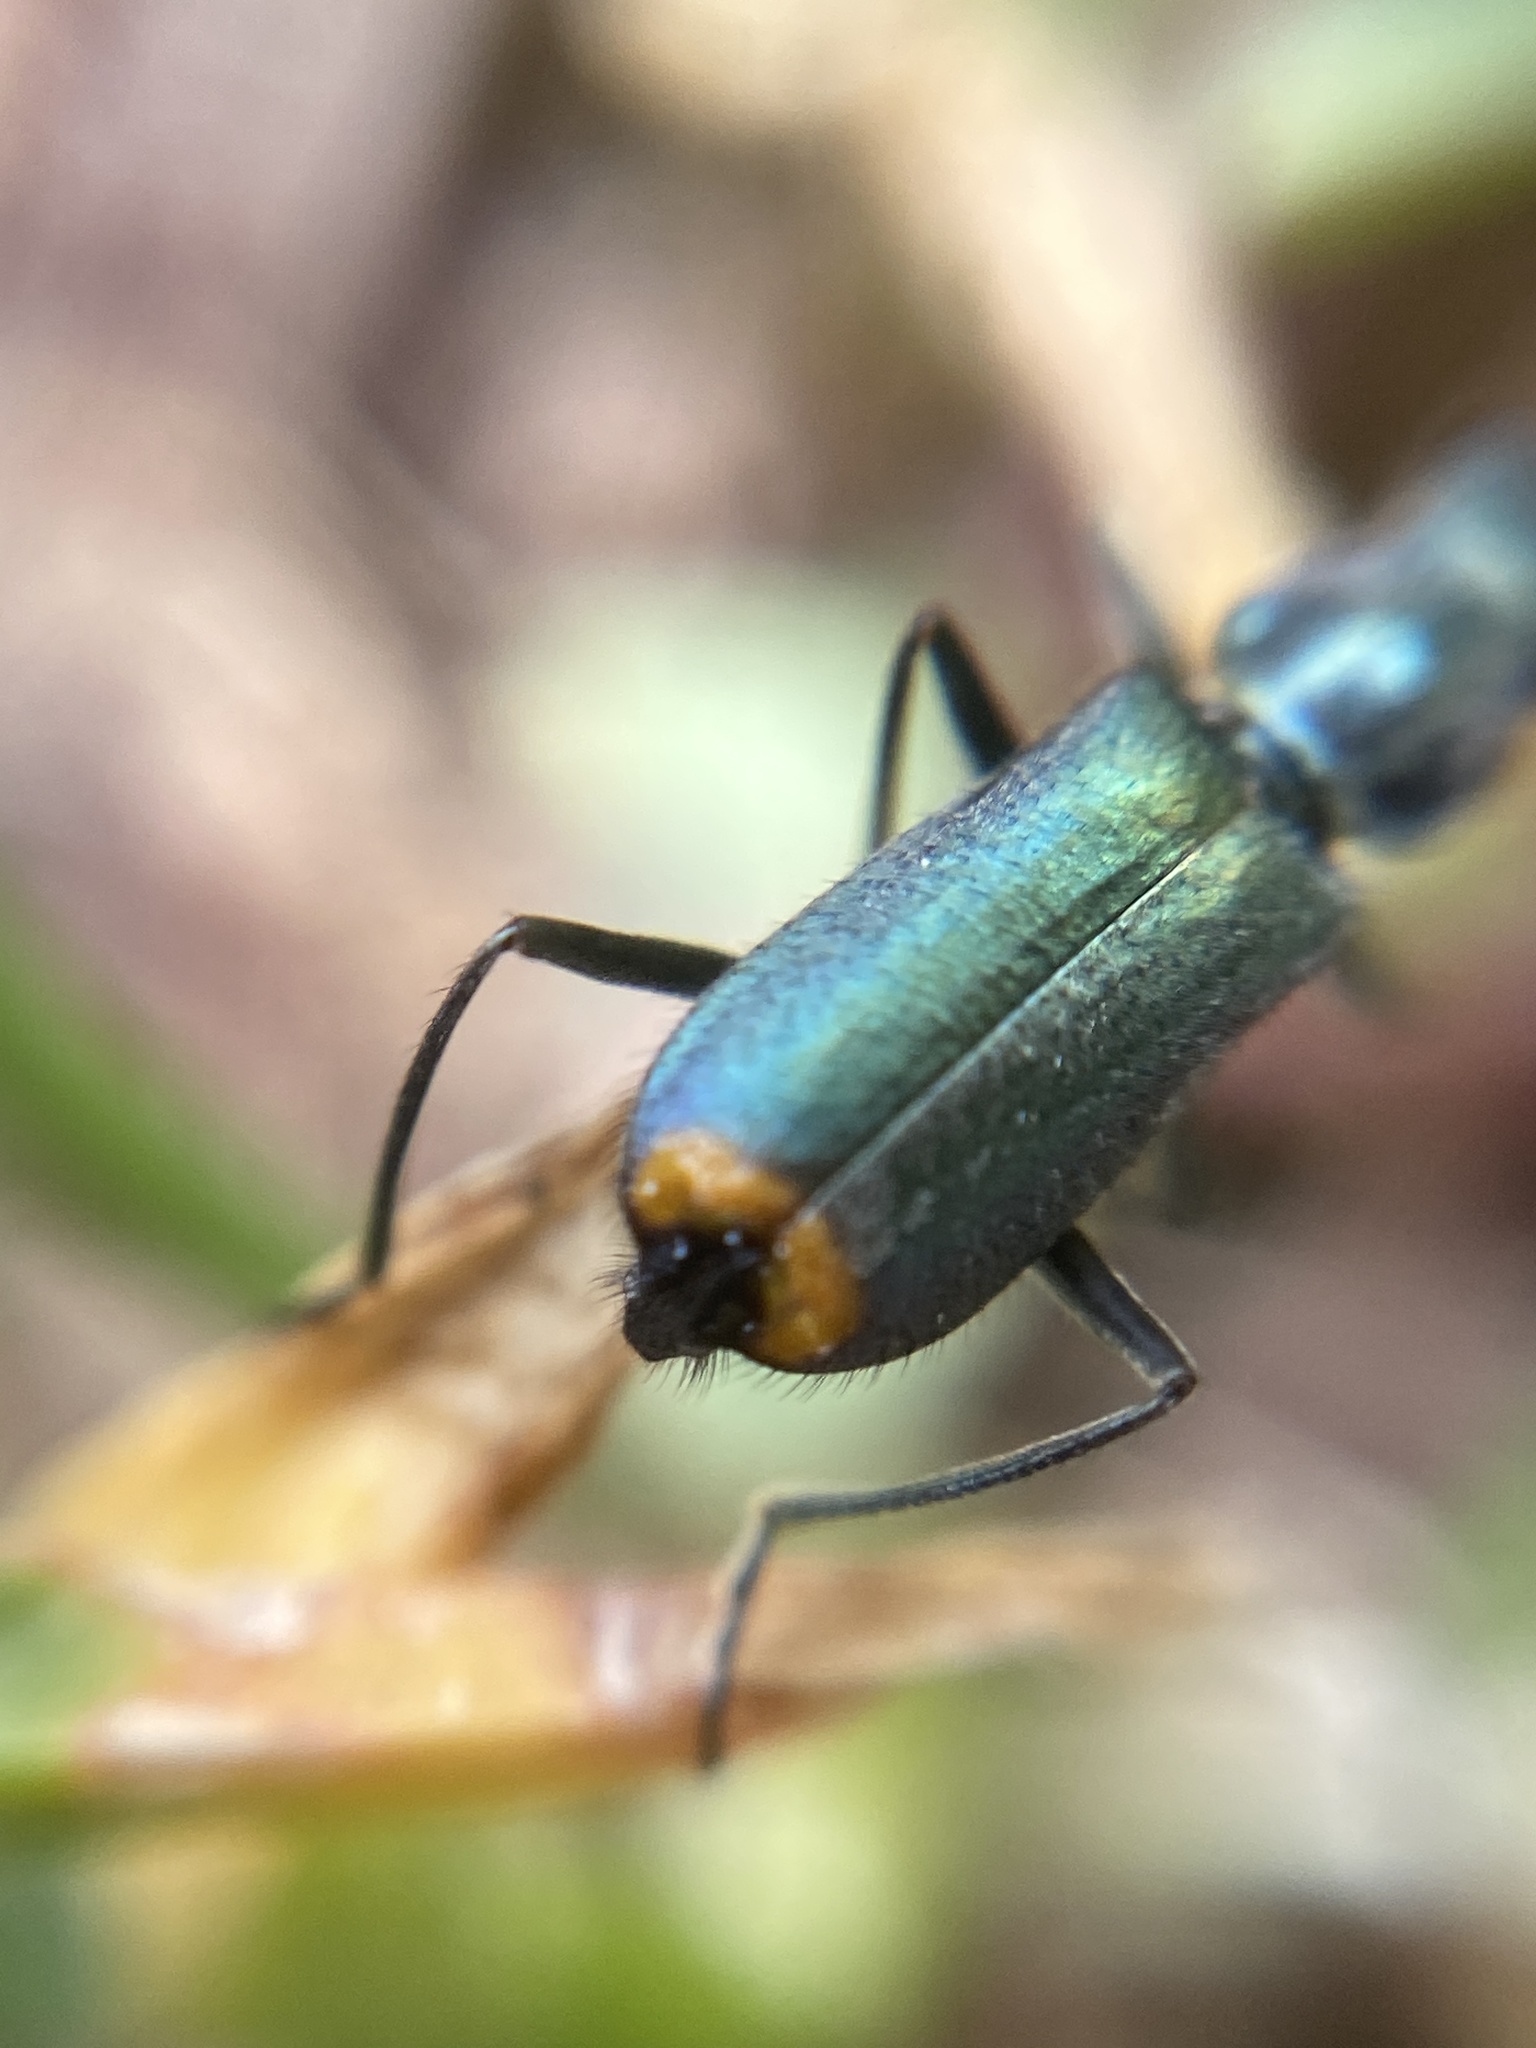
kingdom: Animalia
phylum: Arthropoda
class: Insecta
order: Coleoptera
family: Malachiidae
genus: Clanoptilus
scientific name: Clanoptilus marginellus
